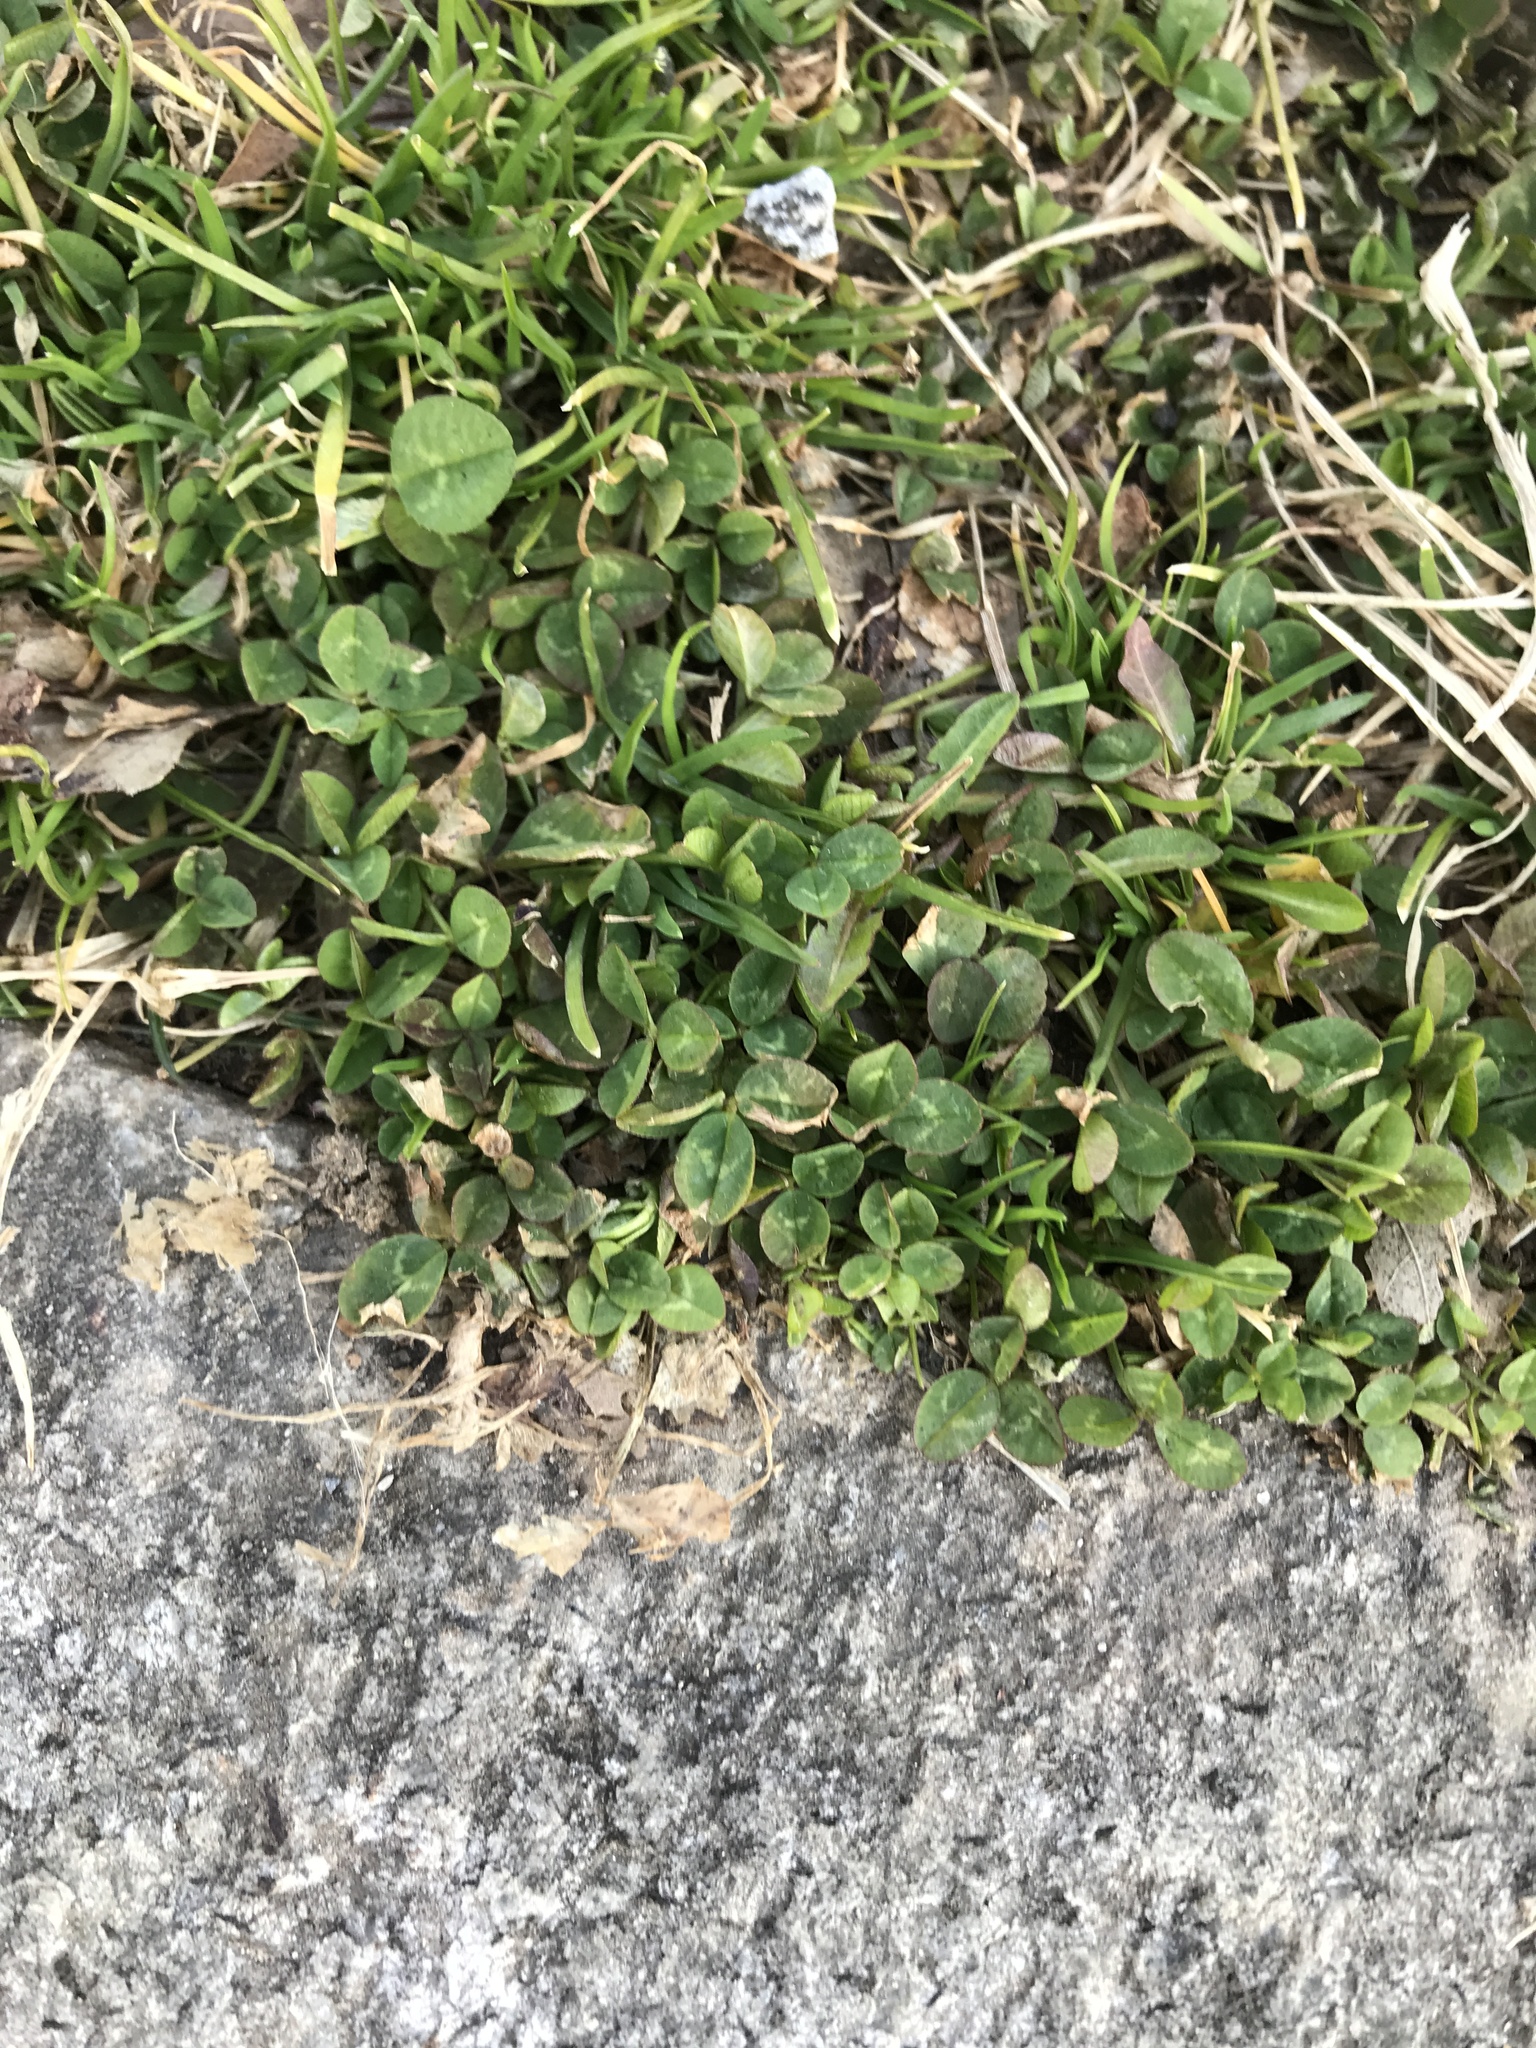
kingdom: Plantae
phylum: Tracheophyta
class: Magnoliopsida
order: Fabales
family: Fabaceae
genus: Trifolium
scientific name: Trifolium repens
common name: White clover
